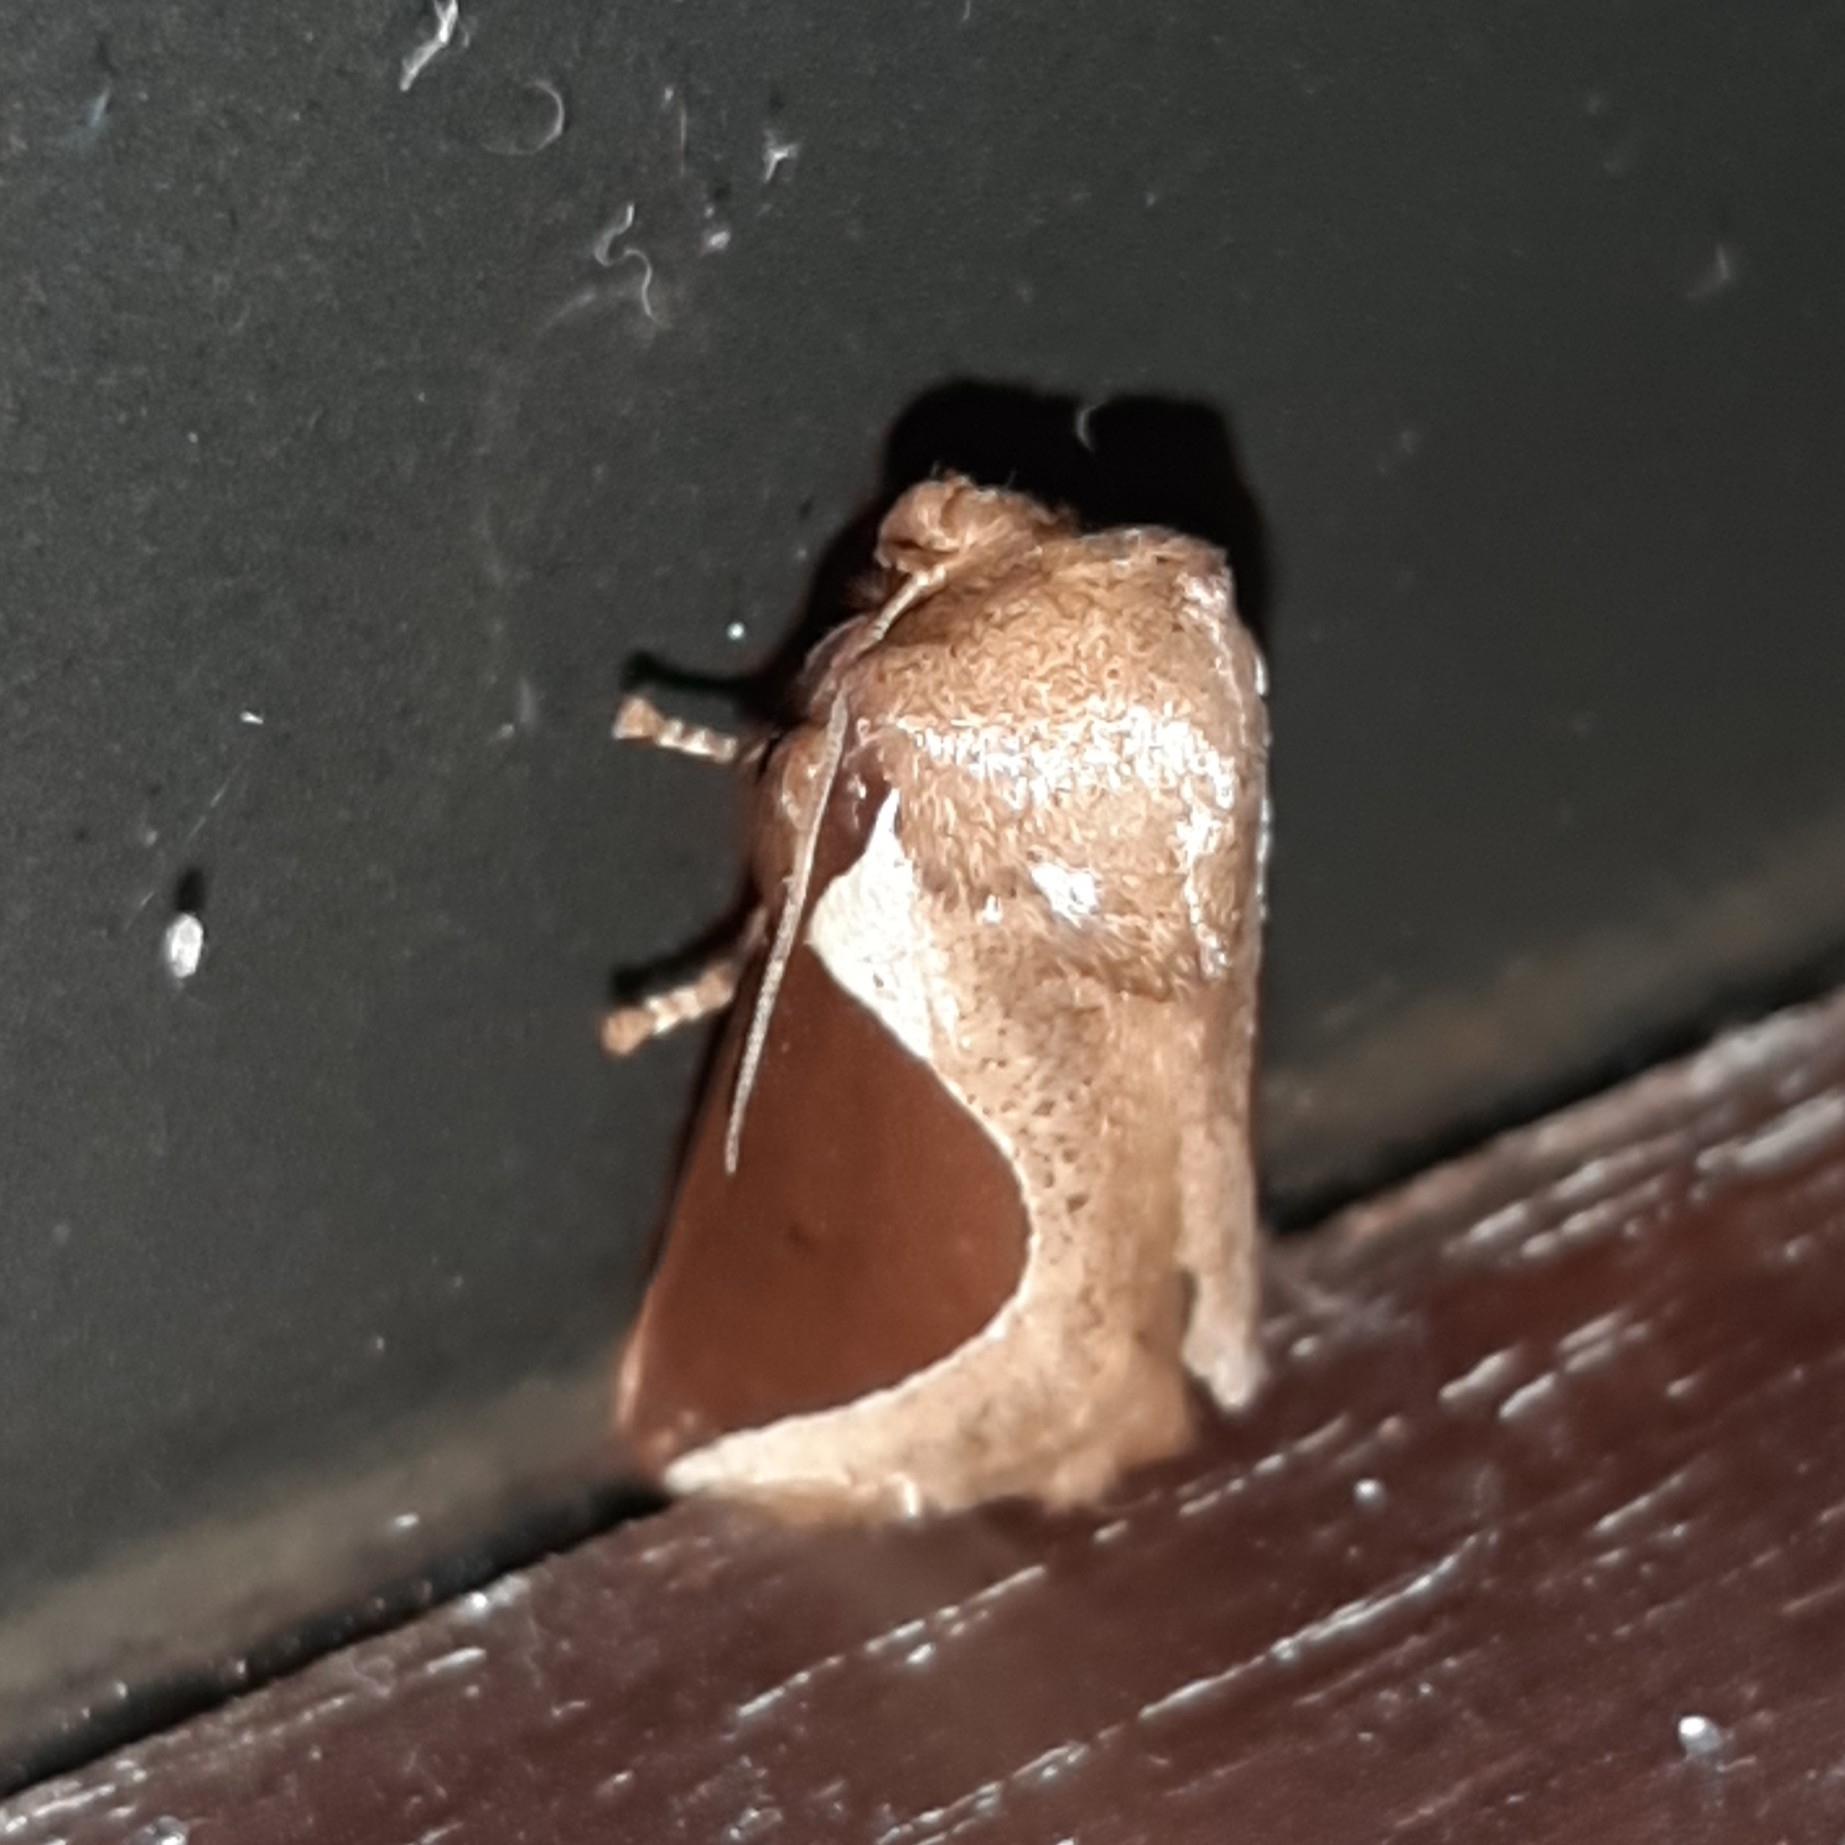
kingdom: Animalia
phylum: Arthropoda
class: Insecta
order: Lepidoptera
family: Limacodidae
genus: Prolimacodes
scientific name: Prolimacodes badia
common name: Skiff moth
